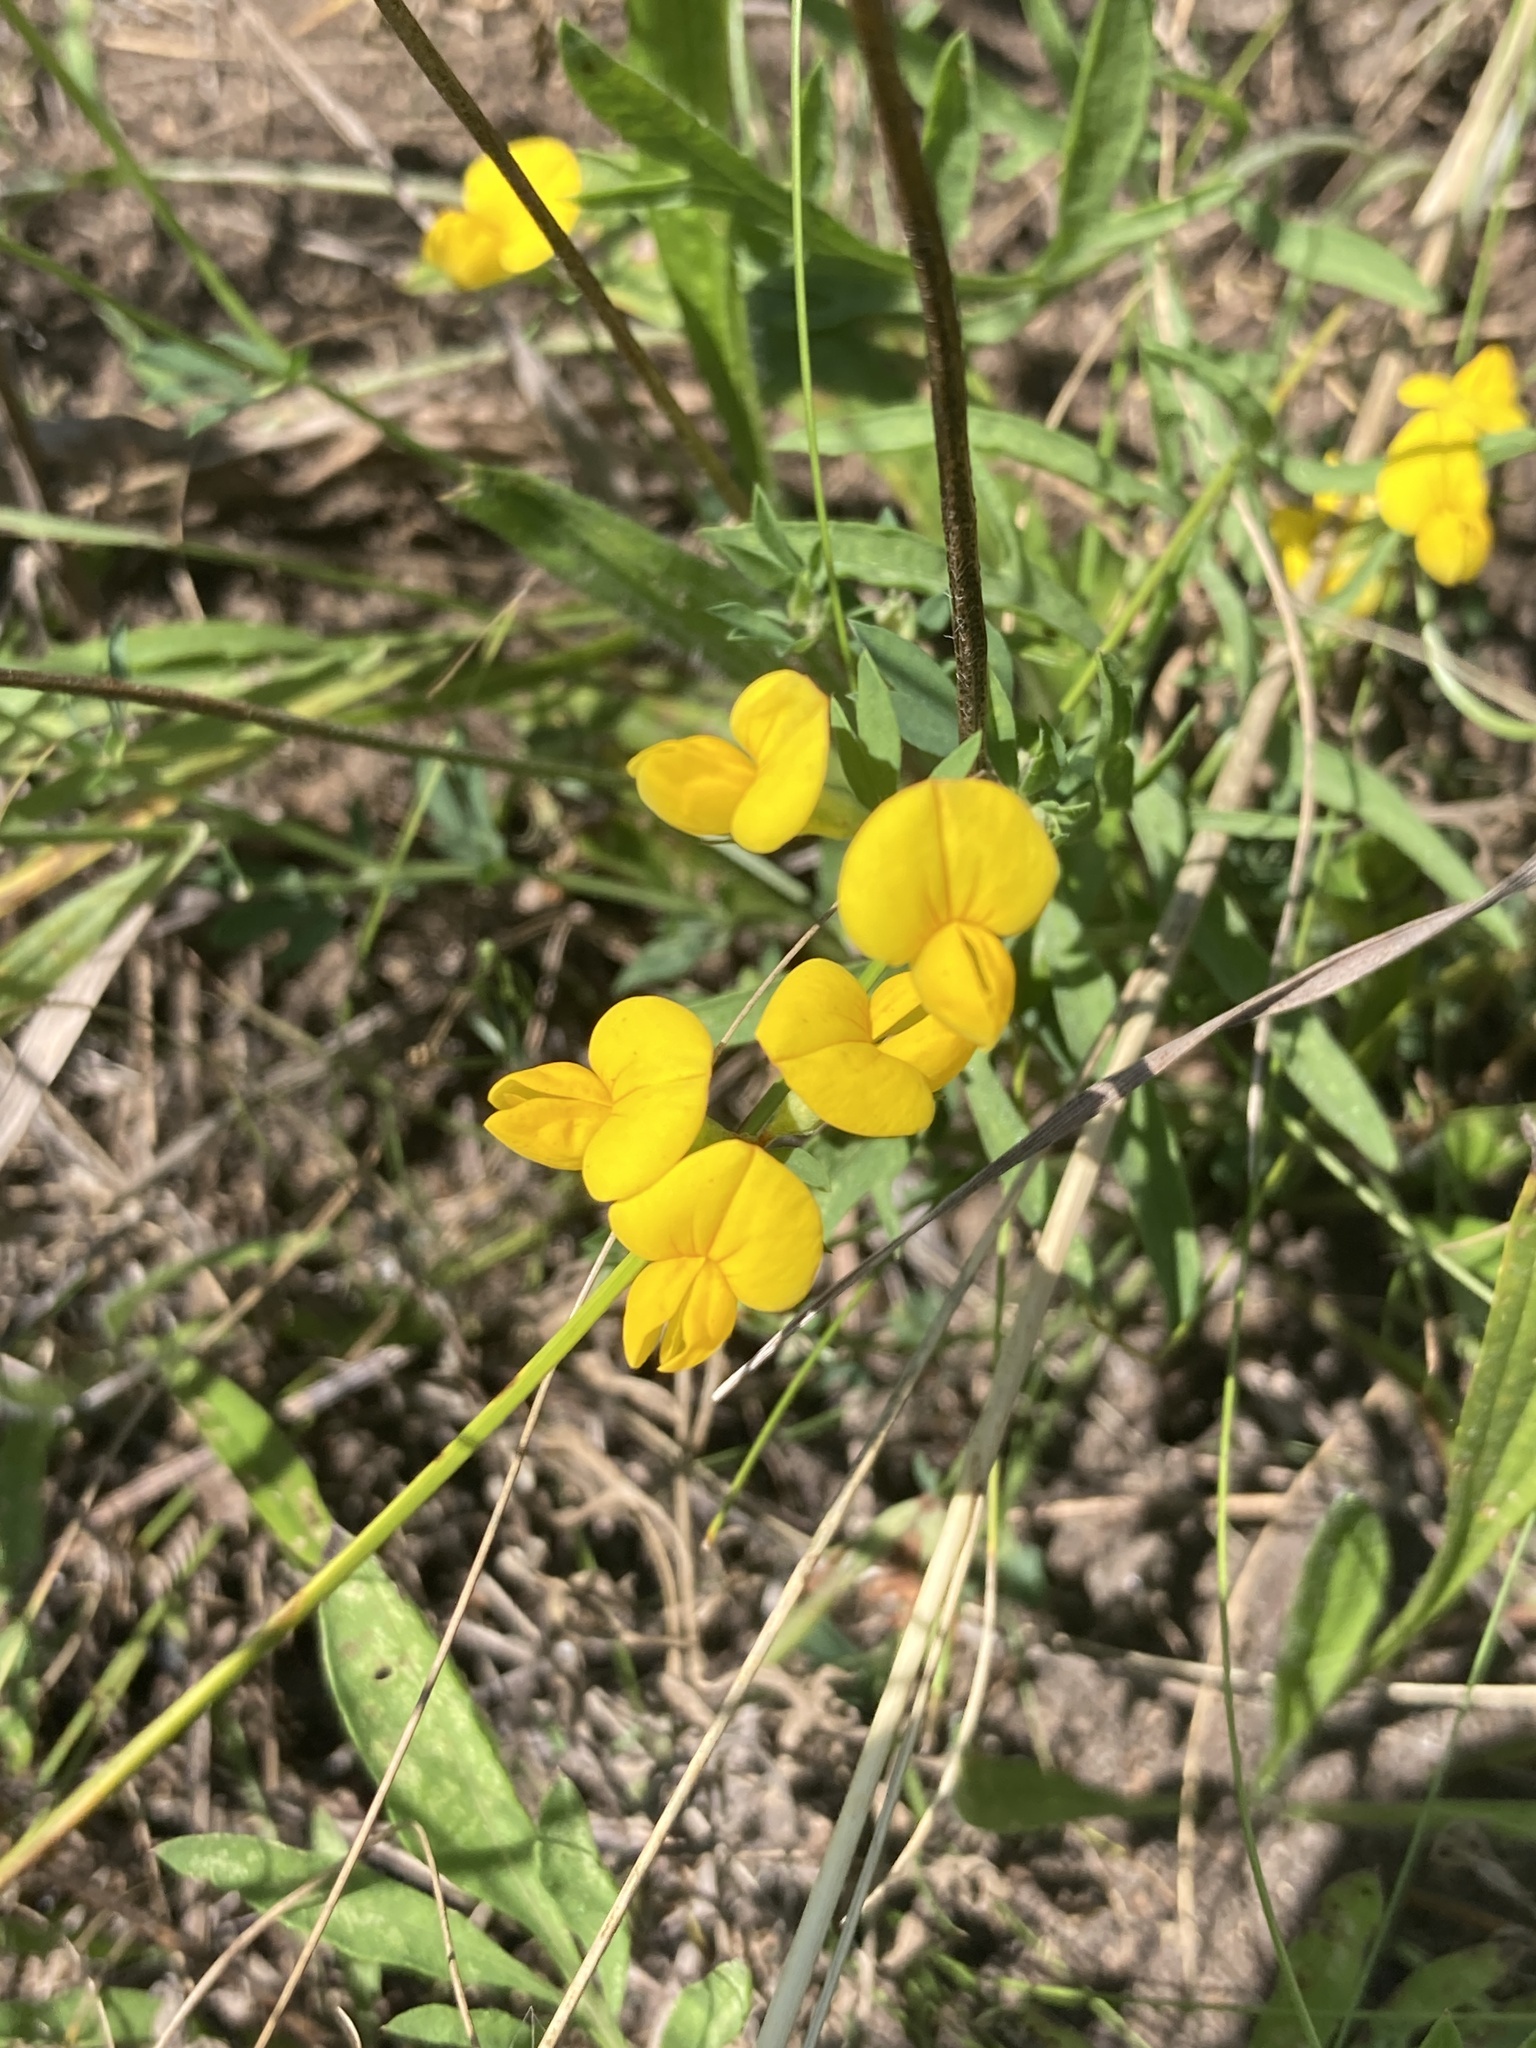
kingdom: Plantae
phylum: Tracheophyta
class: Magnoliopsida
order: Fabales
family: Fabaceae
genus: Lotus
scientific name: Lotus corniculatus
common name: Common bird's-foot-trefoil
